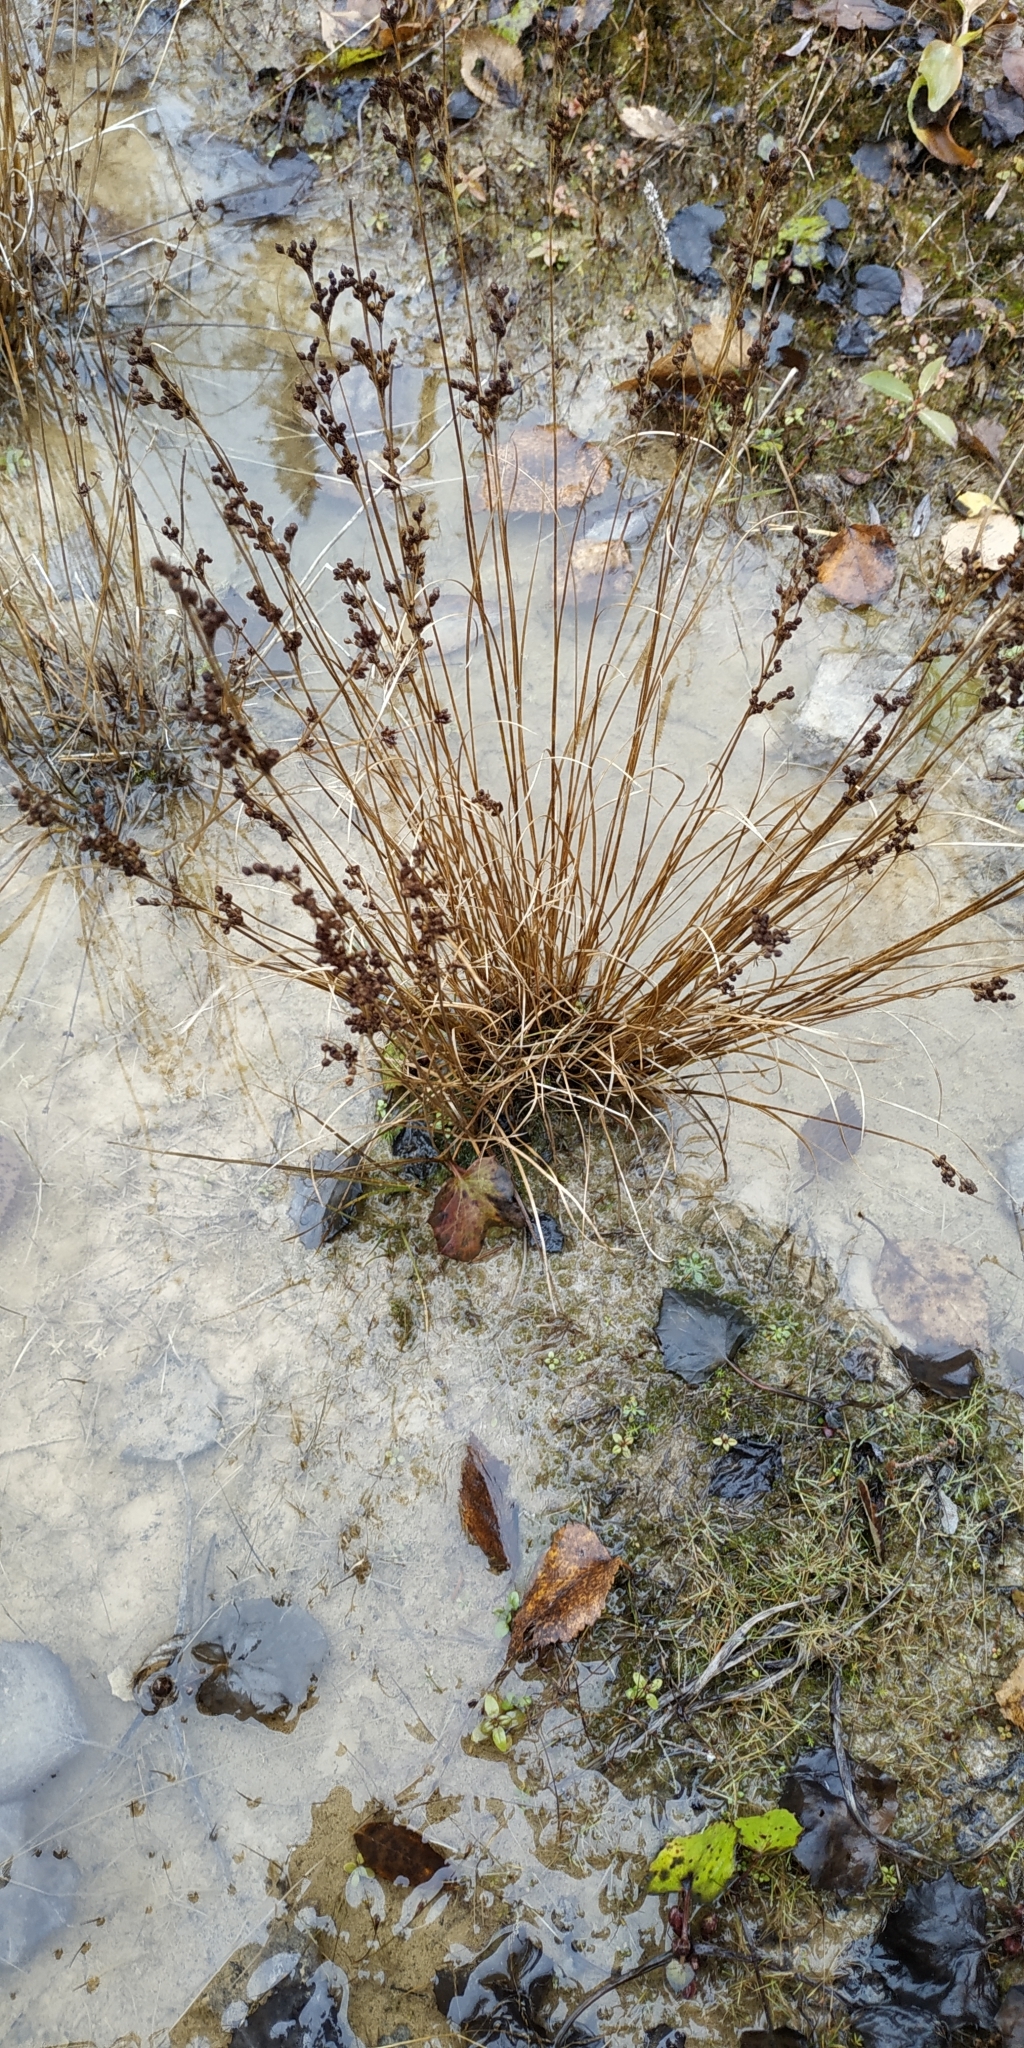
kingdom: Plantae
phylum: Tracheophyta
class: Liliopsida
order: Poales
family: Juncaceae
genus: Juncus
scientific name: Juncus compressus
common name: Round-fruited rush
